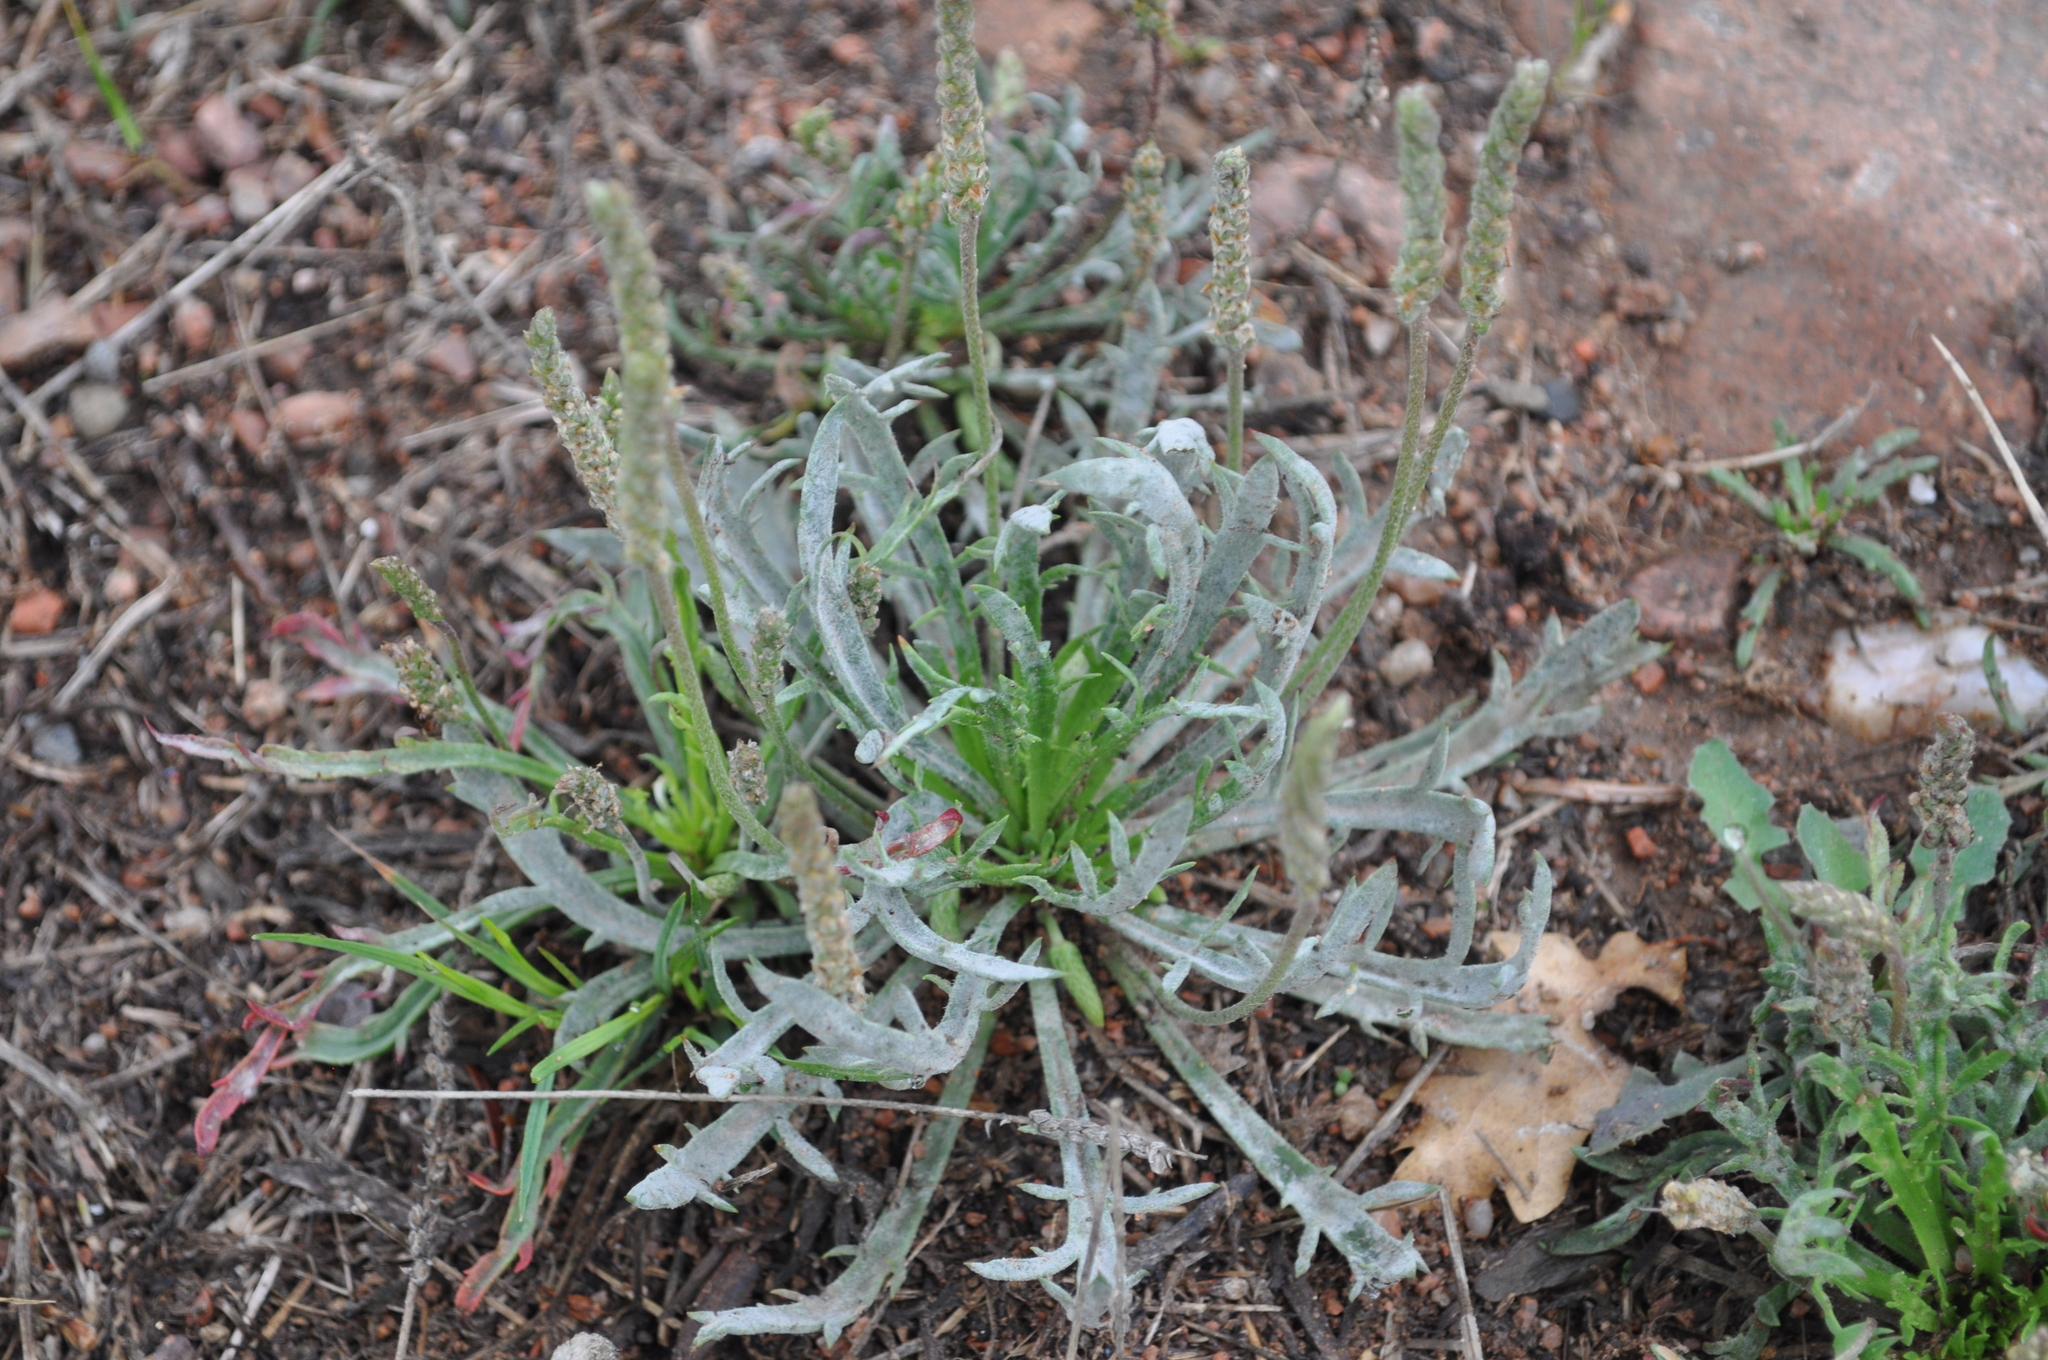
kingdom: Plantae
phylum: Tracheophyta
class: Magnoliopsida
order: Lamiales
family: Plantaginaceae
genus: Plantago
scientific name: Plantago coronopus
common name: Buck's-horn plantain
